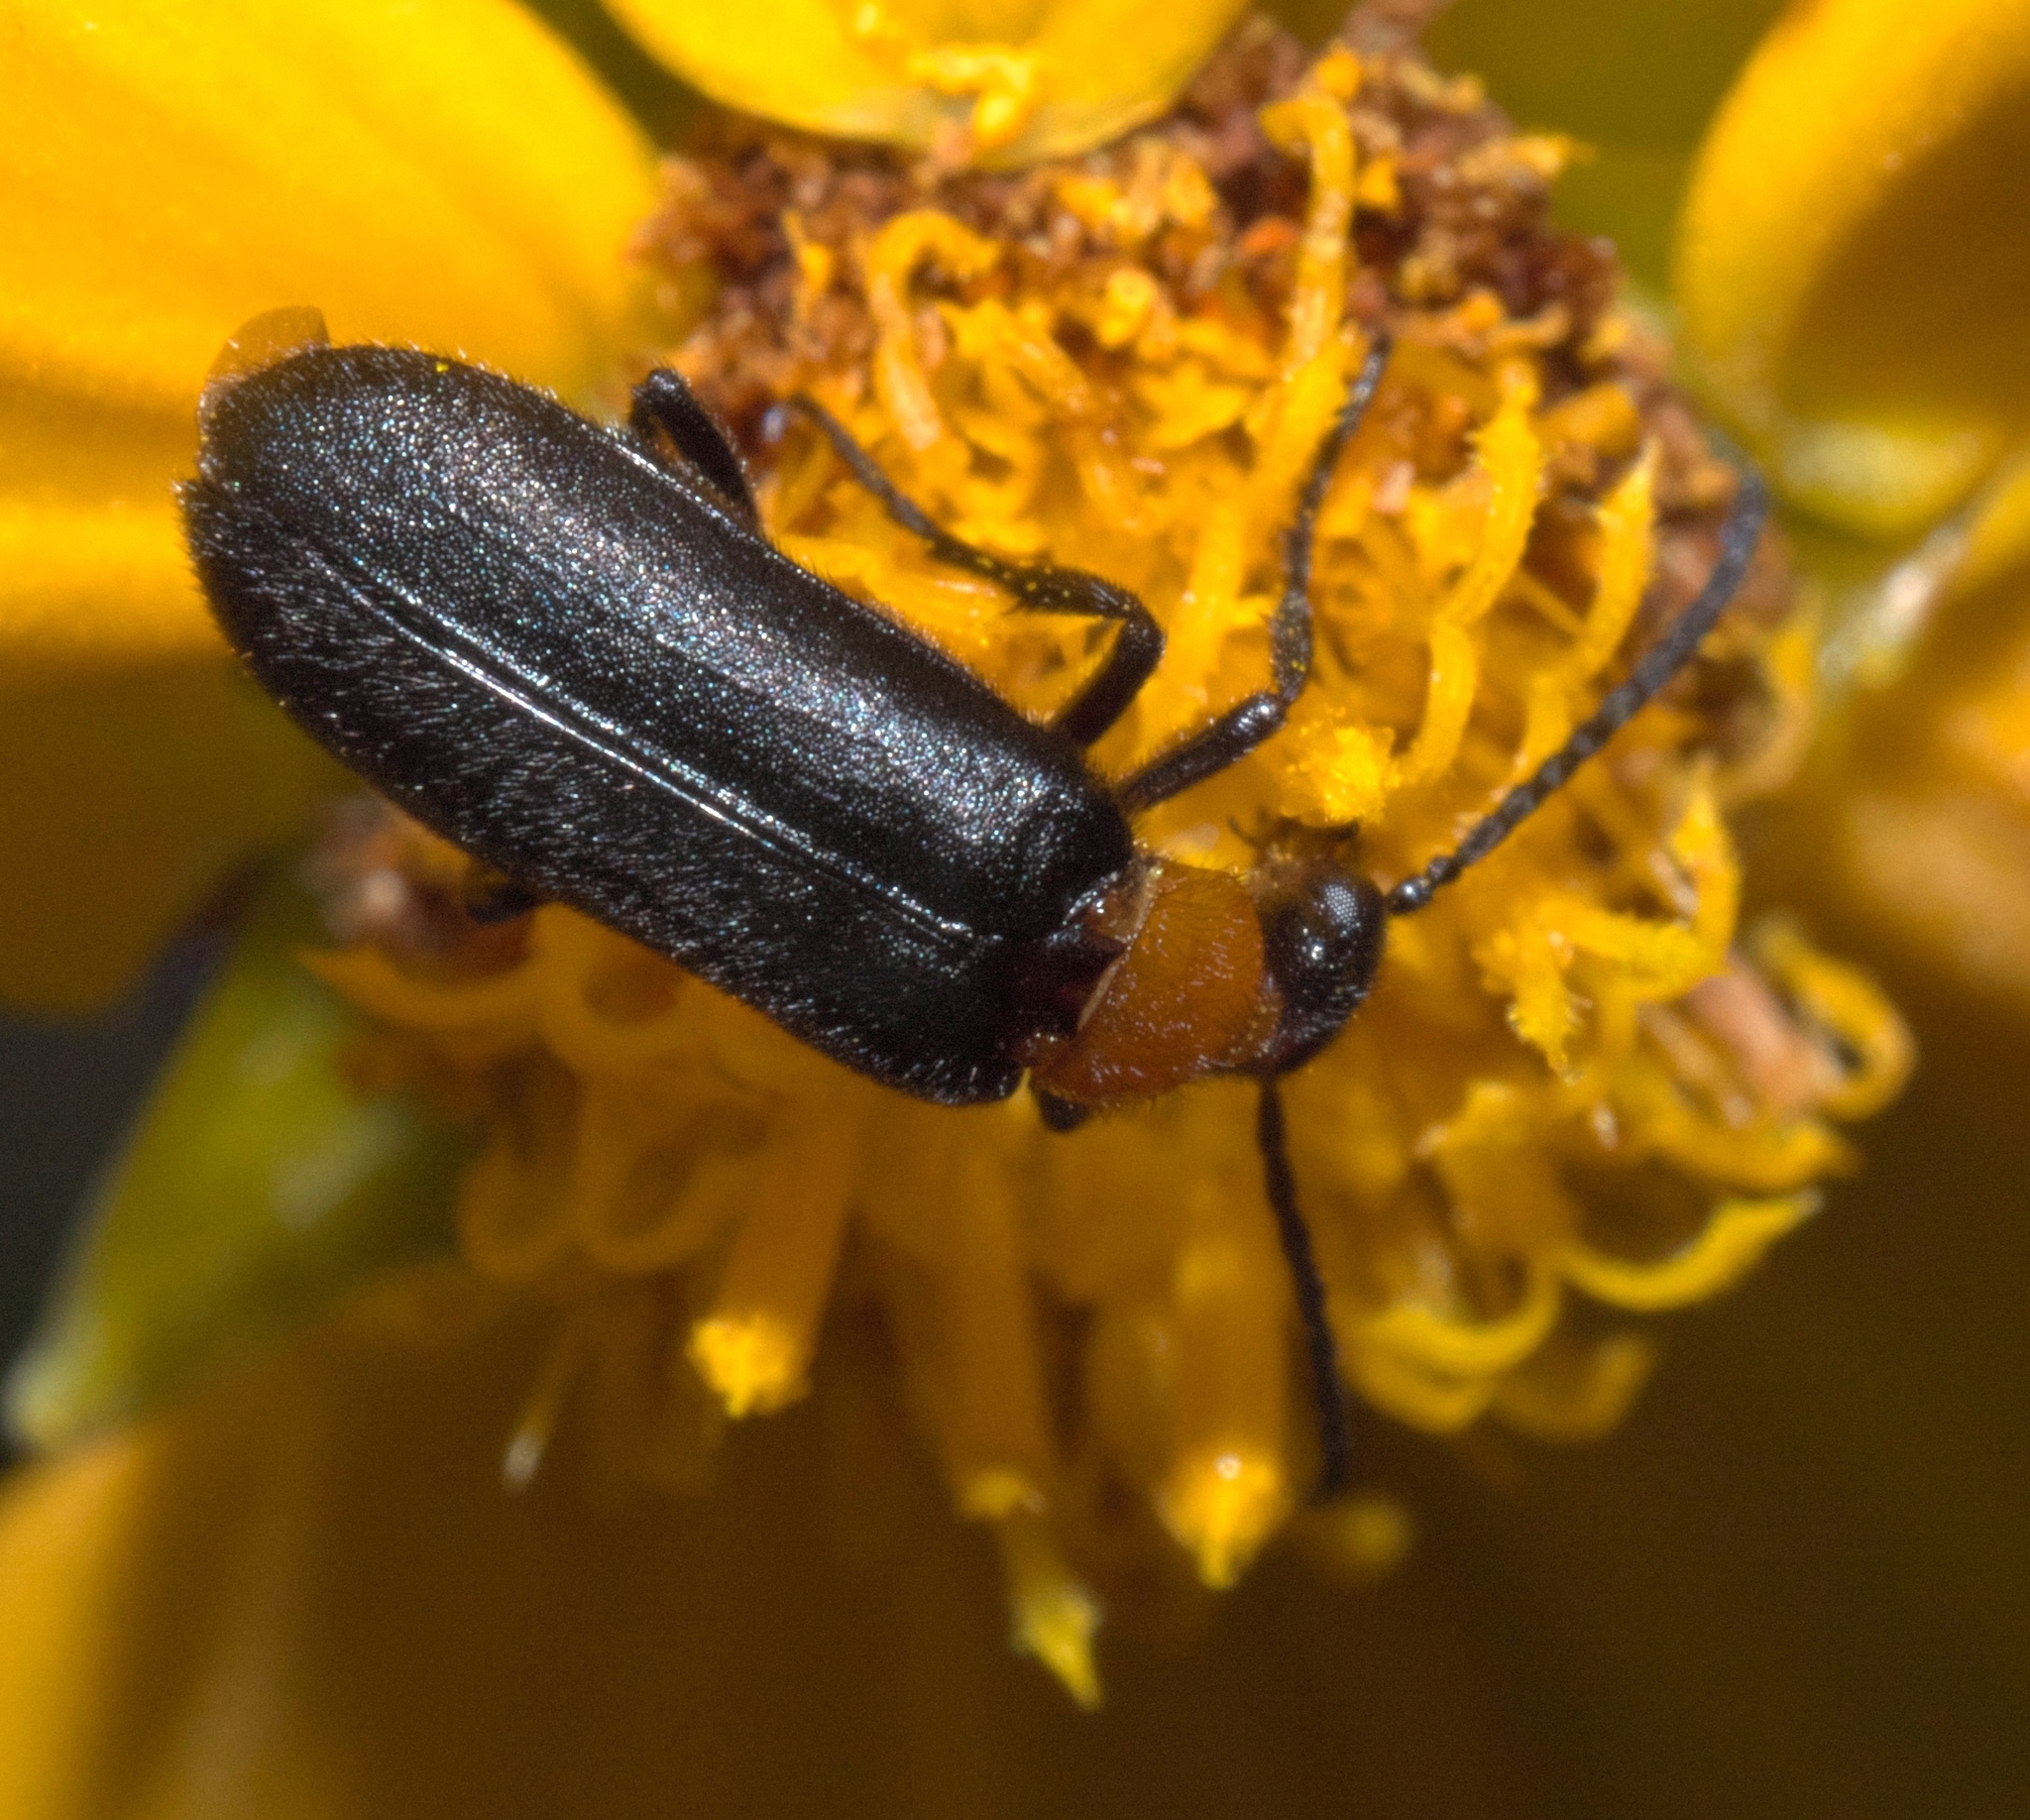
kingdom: Animalia
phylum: Arthropoda
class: Insecta
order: Coleoptera
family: Meloidae
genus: Nemognatha
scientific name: Nemognatha nemorensis
